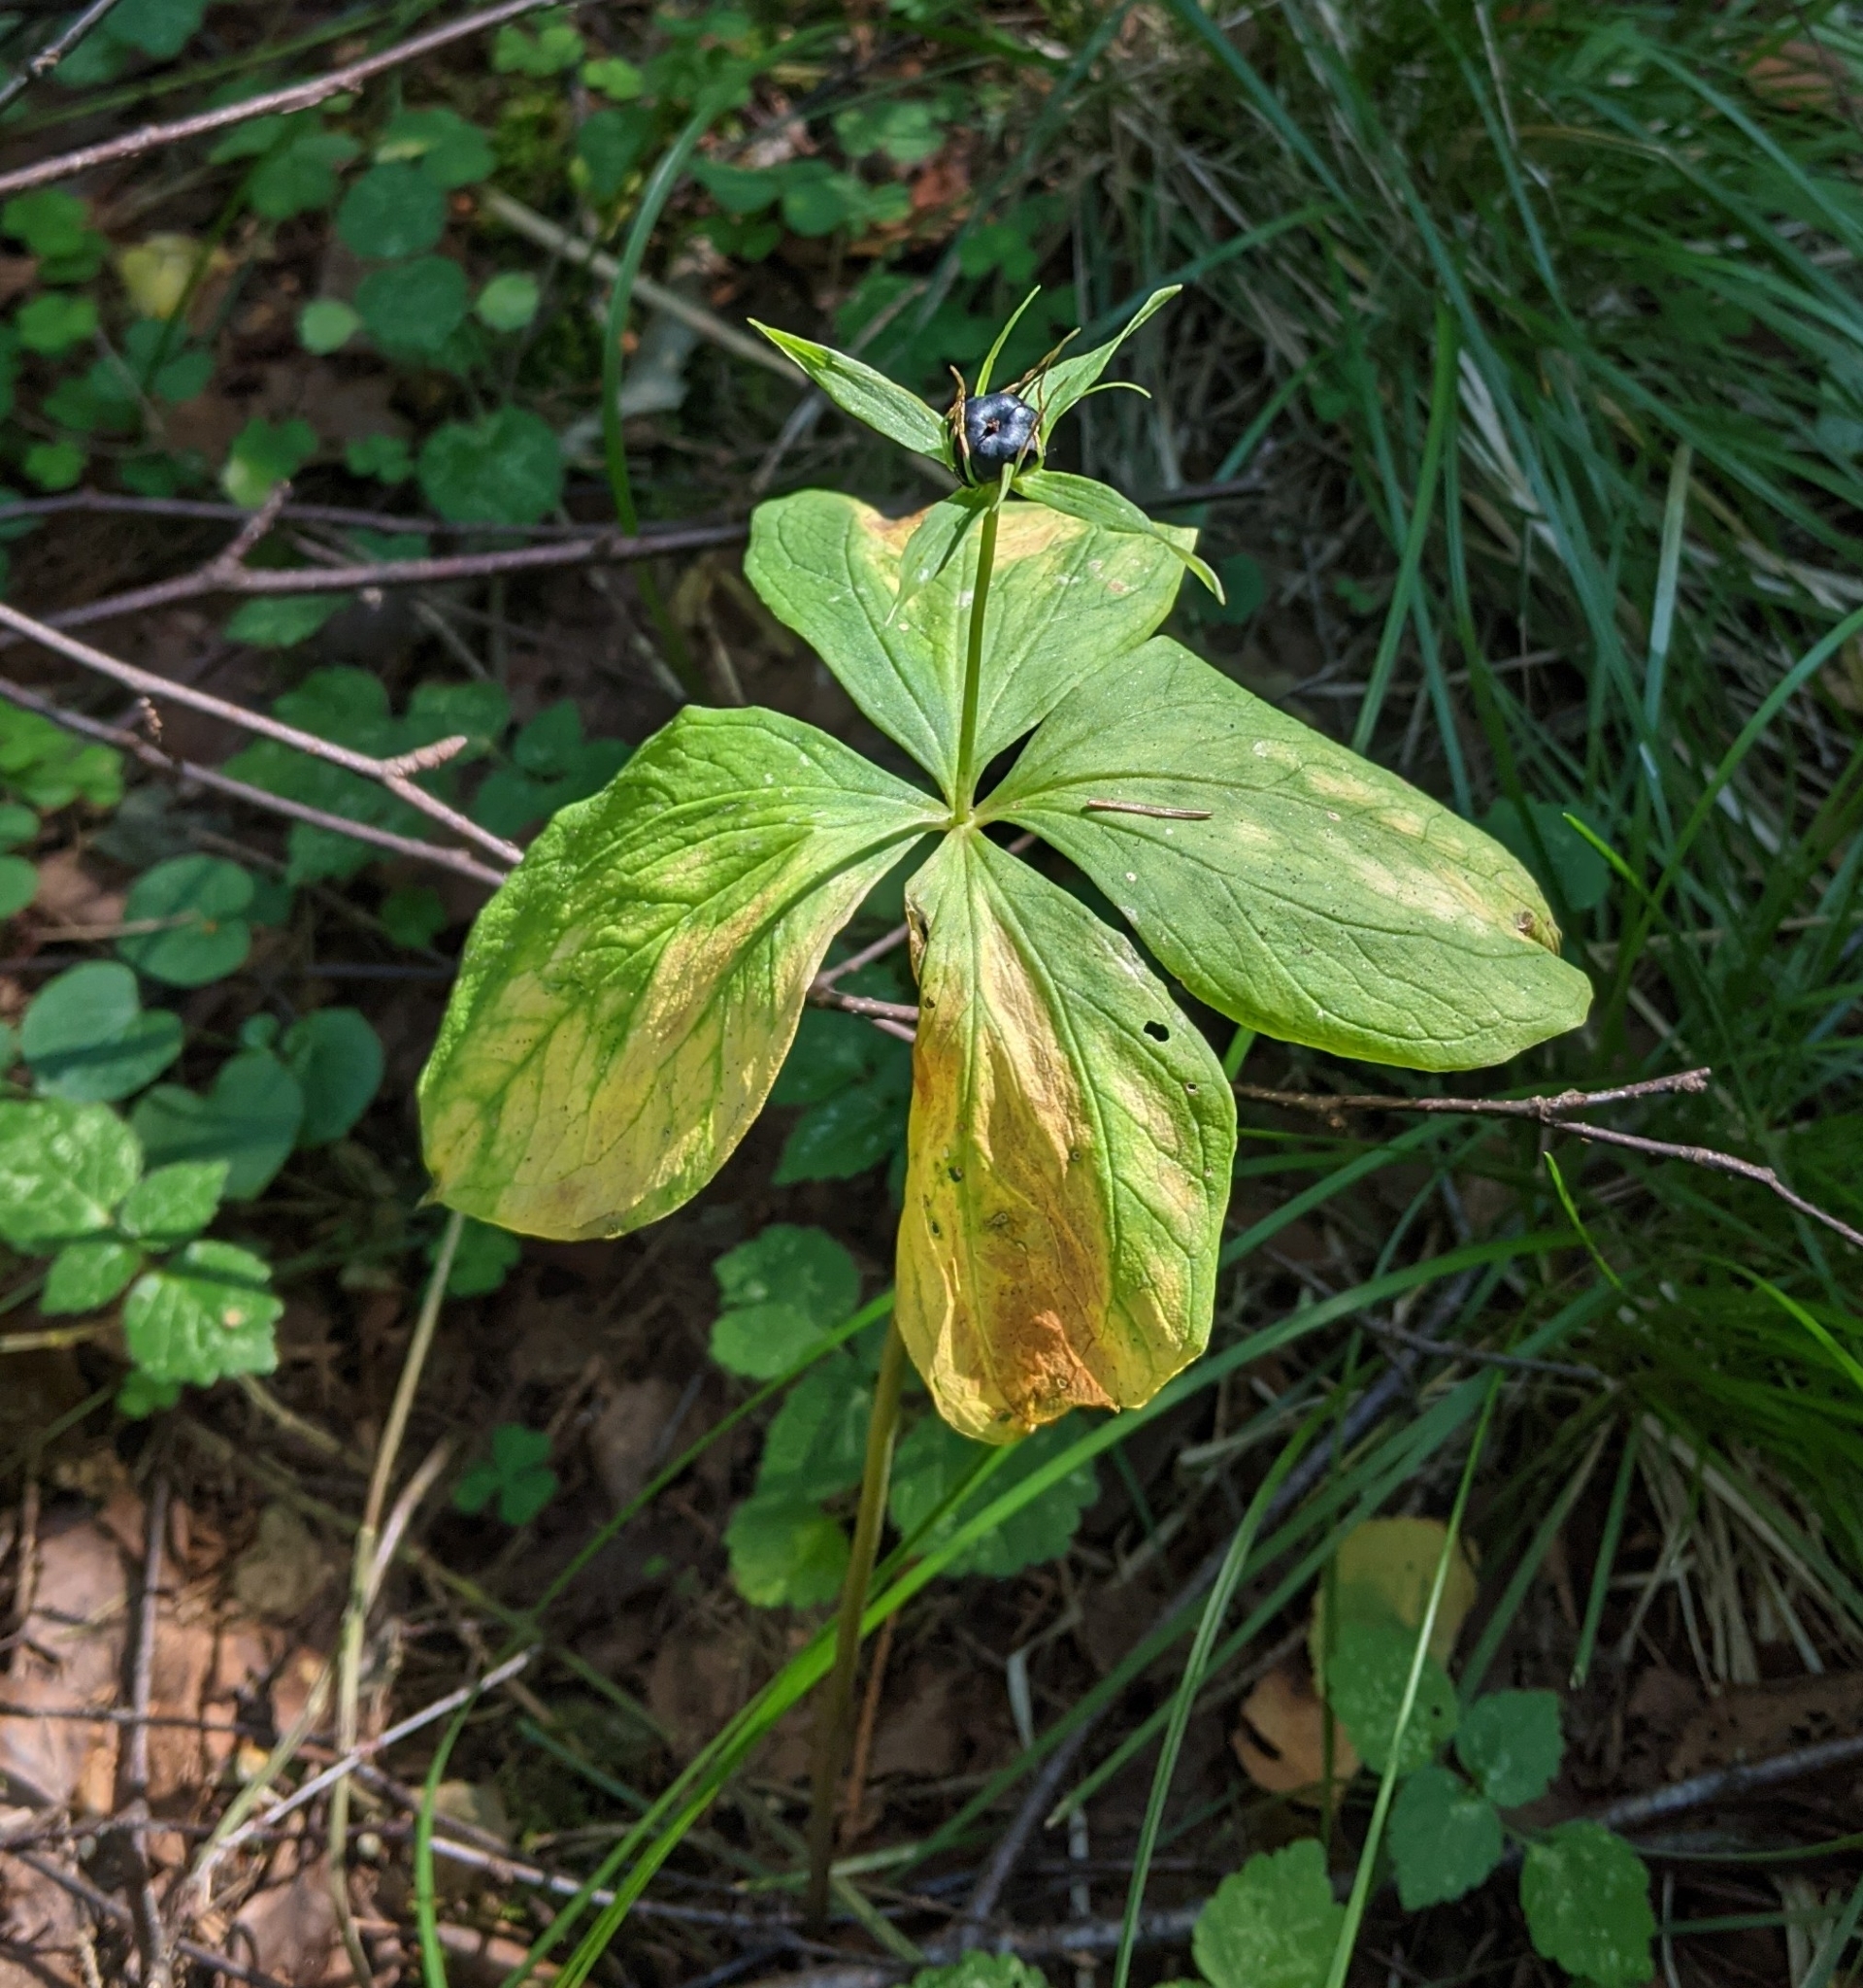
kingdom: Plantae
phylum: Tracheophyta
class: Liliopsida
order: Liliales
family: Melanthiaceae
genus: Paris
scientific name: Paris quadrifolia
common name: Herb-paris
